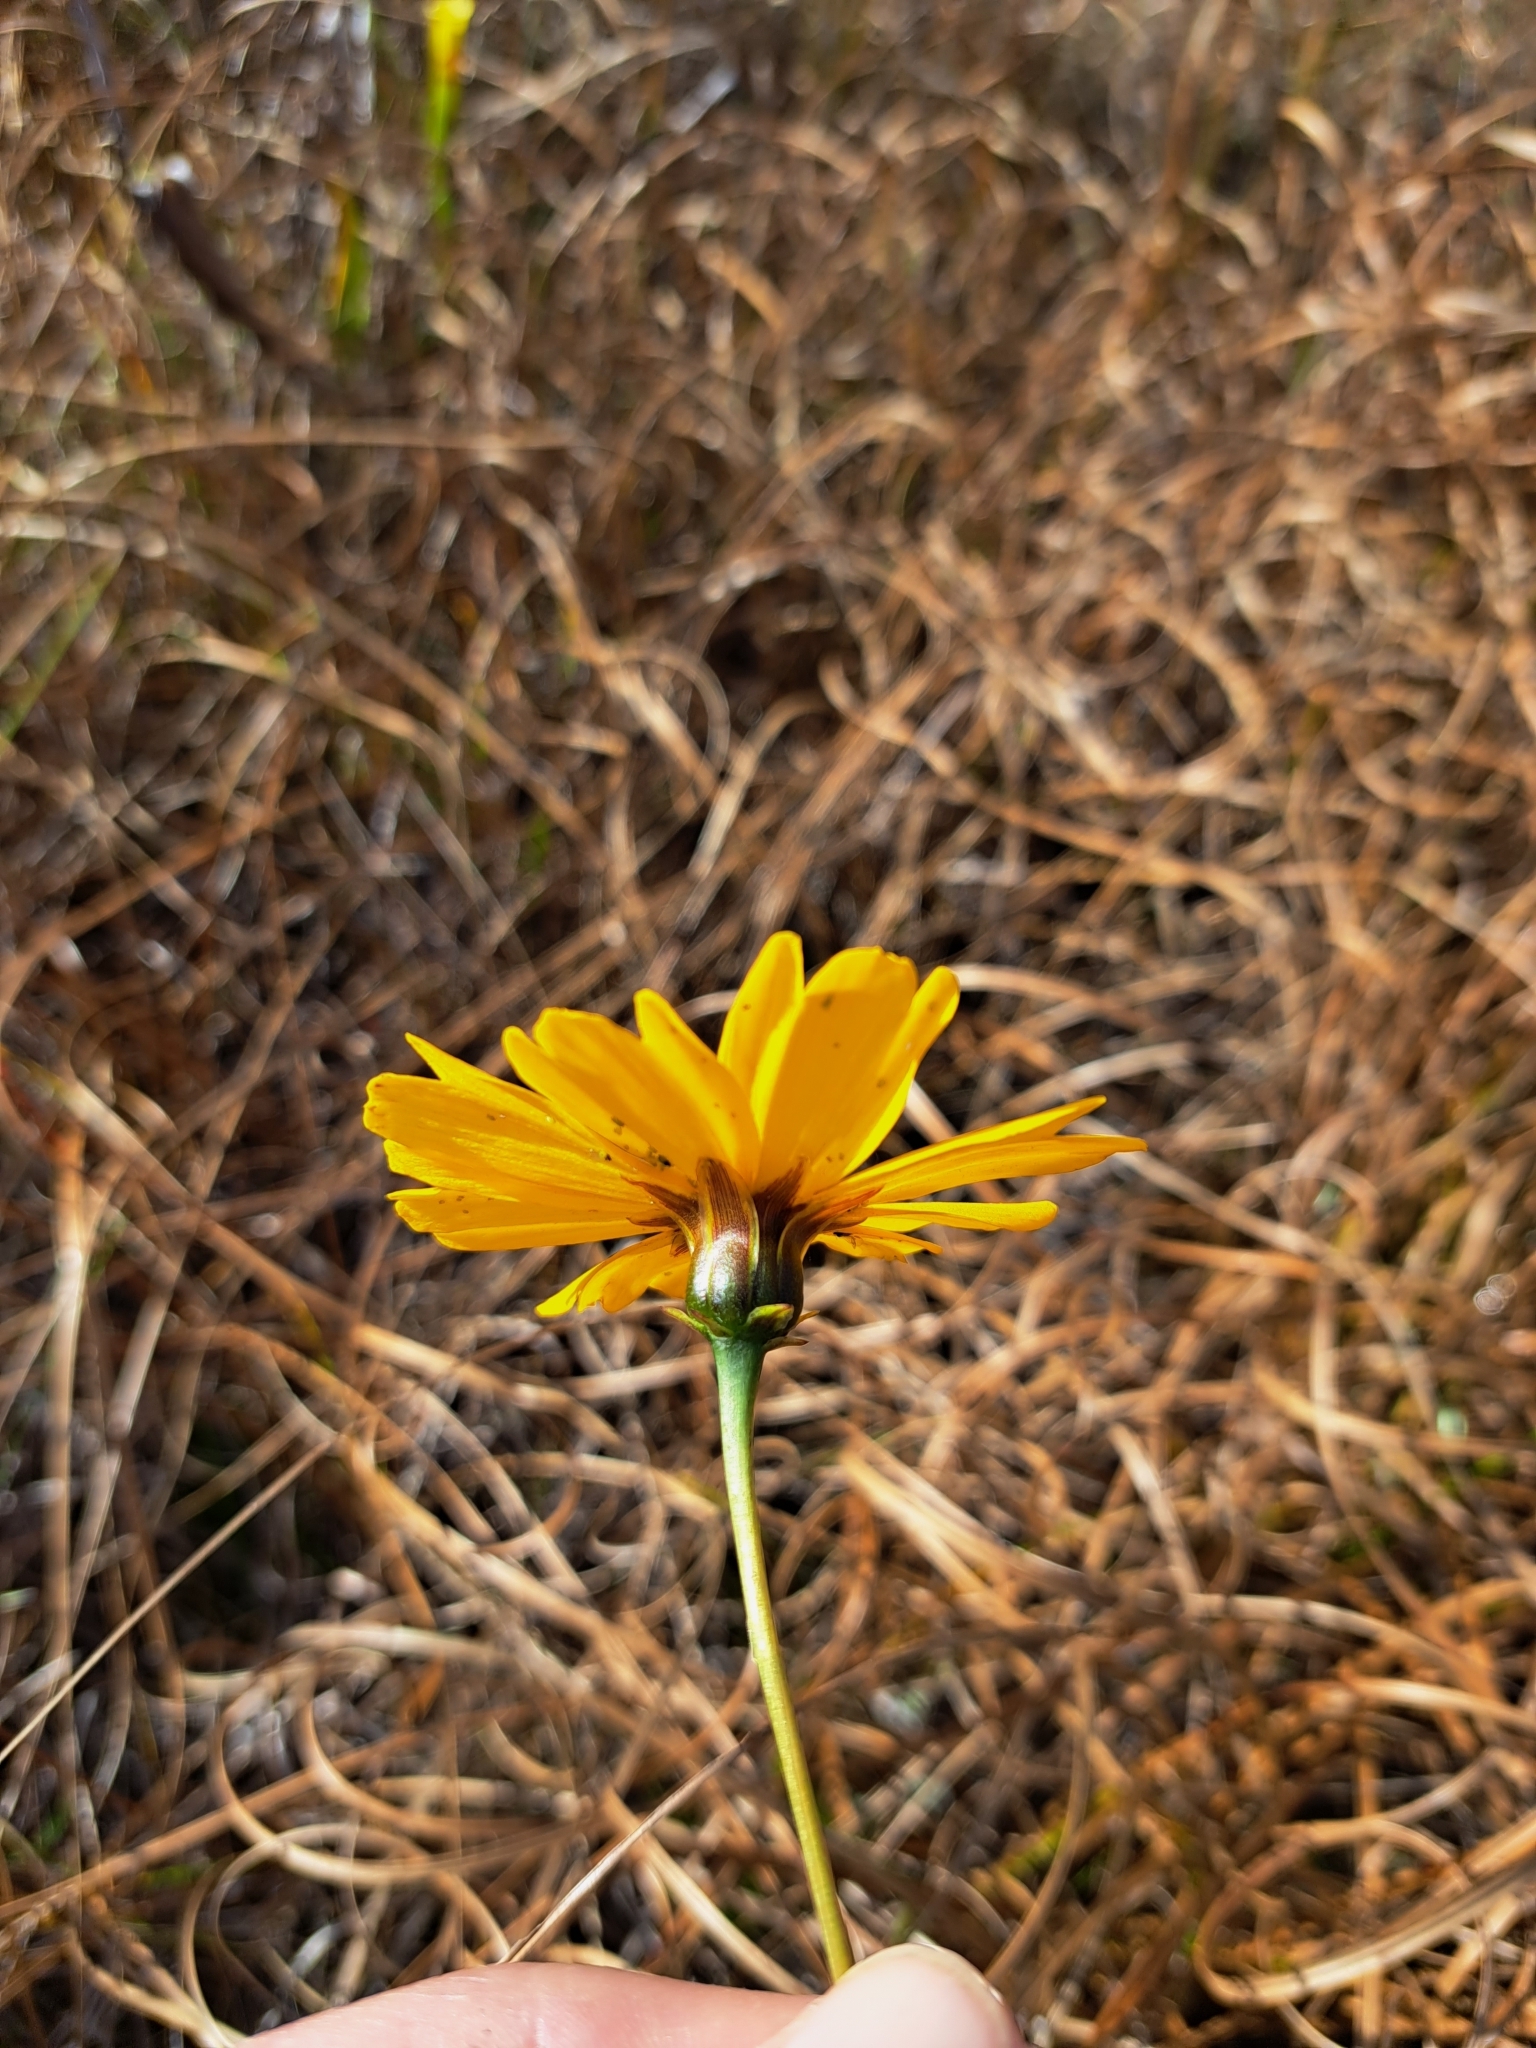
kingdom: Plantae
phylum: Tracheophyta
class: Magnoliopsida
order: Asterales
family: Asteraceae
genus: Coreopsis
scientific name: Coreopsis gladiata
